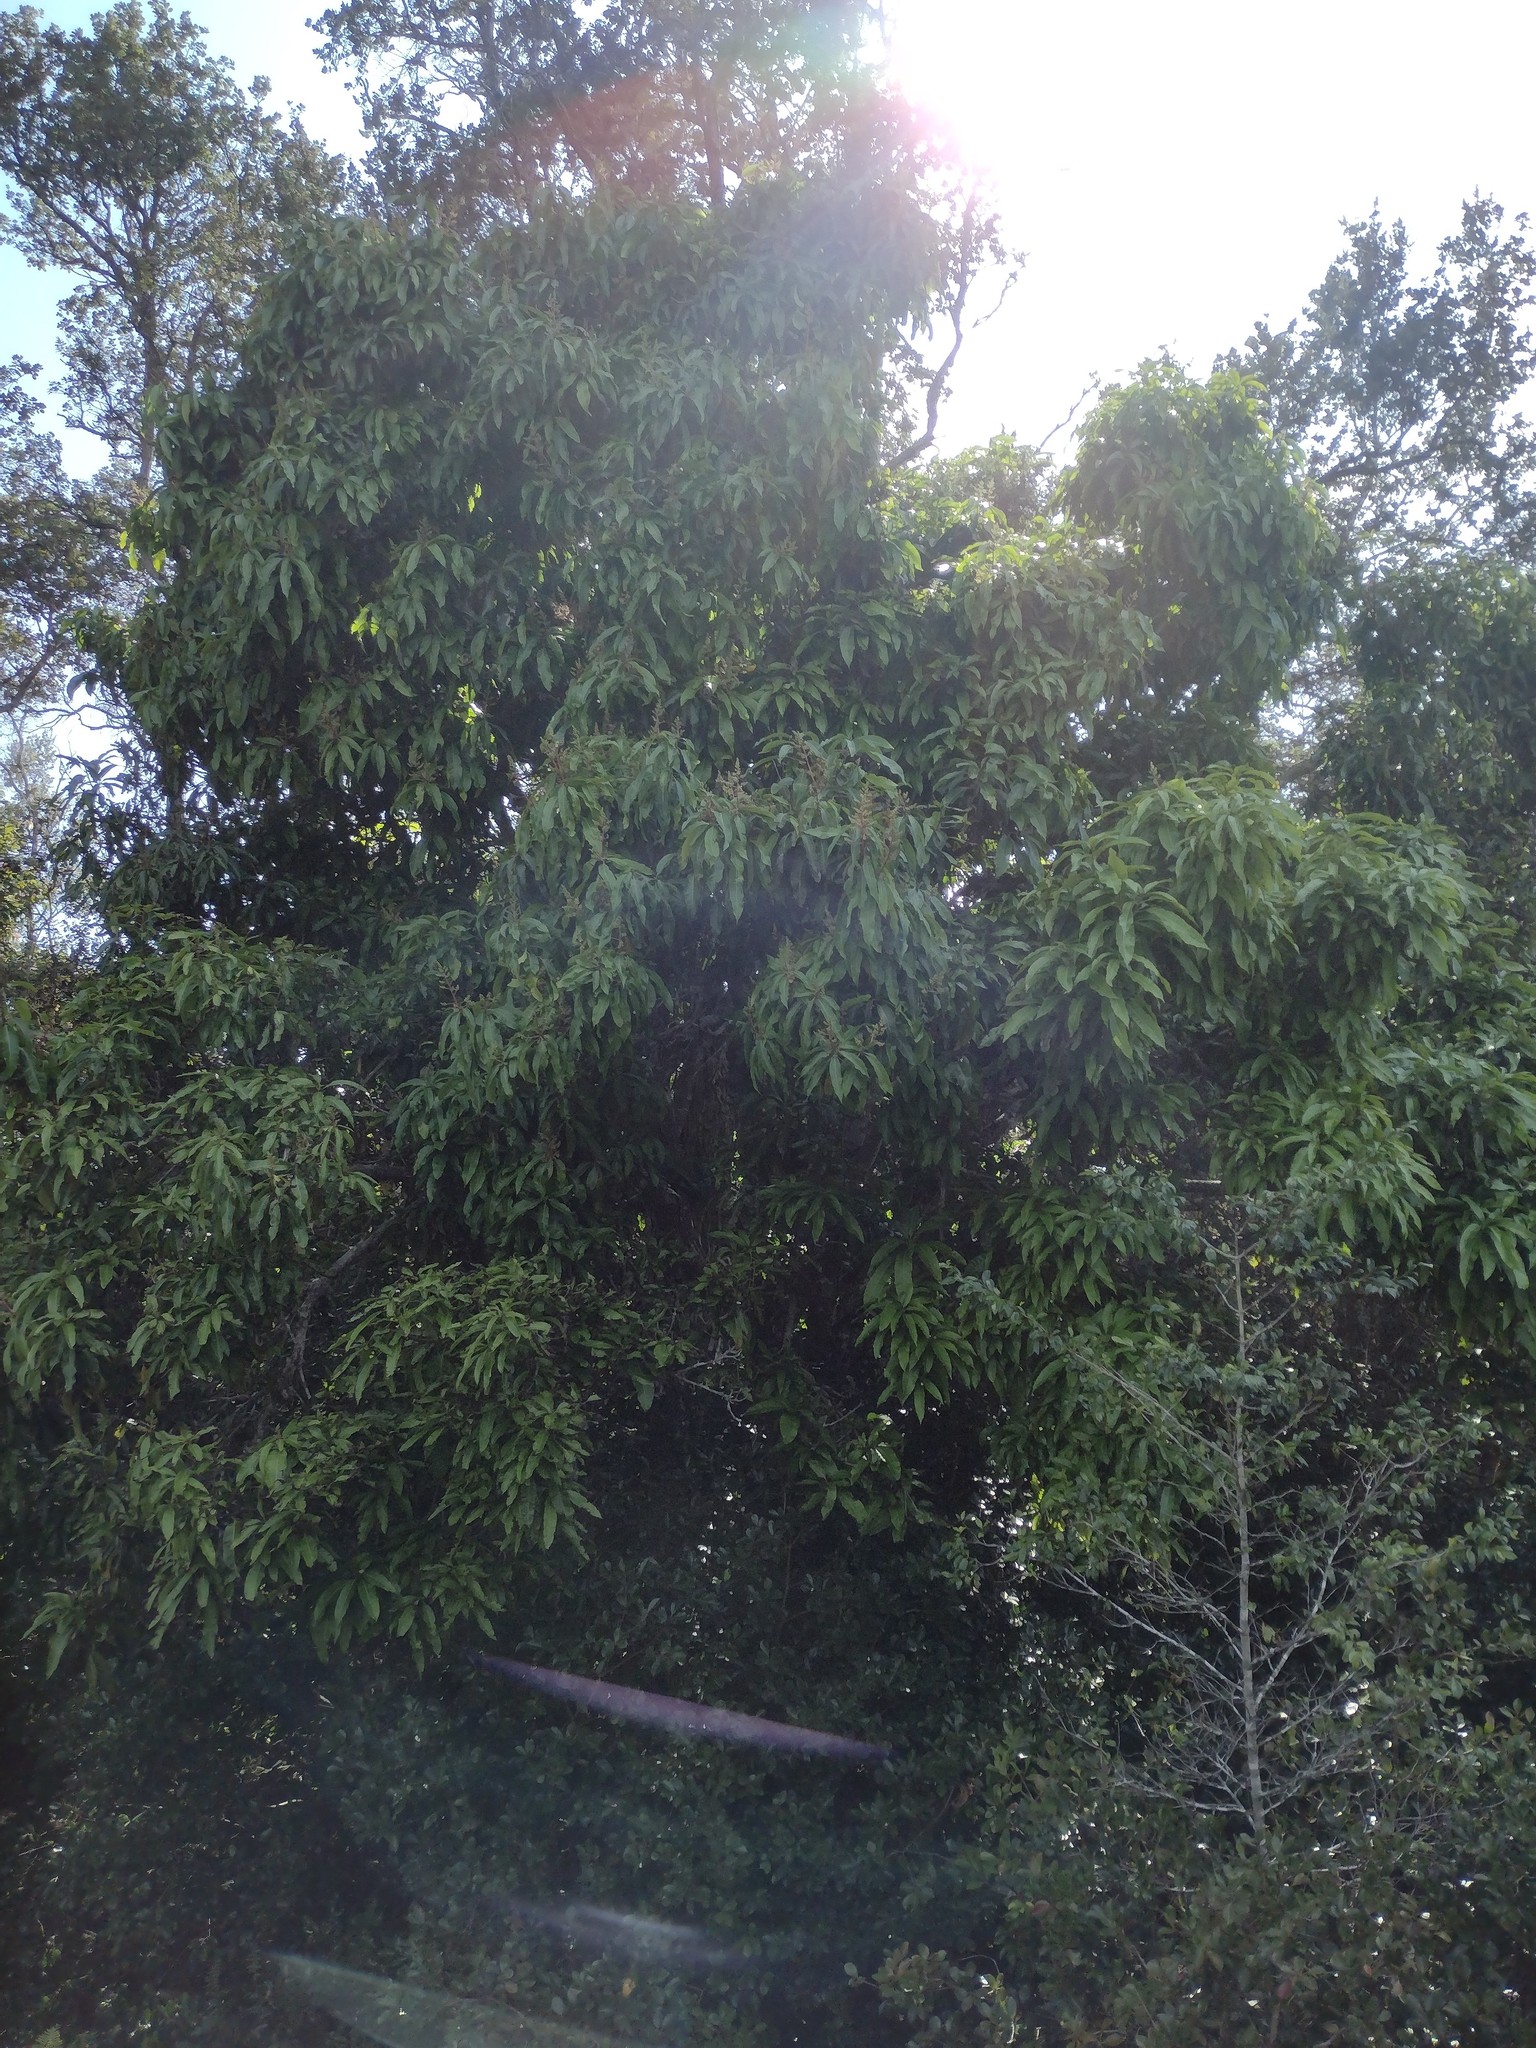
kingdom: Plantae
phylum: Tracheophyta
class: Magnoliopsida
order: Sapindales
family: Anacardiaceae
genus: Mangifera
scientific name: Mangifera indica
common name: Mango
